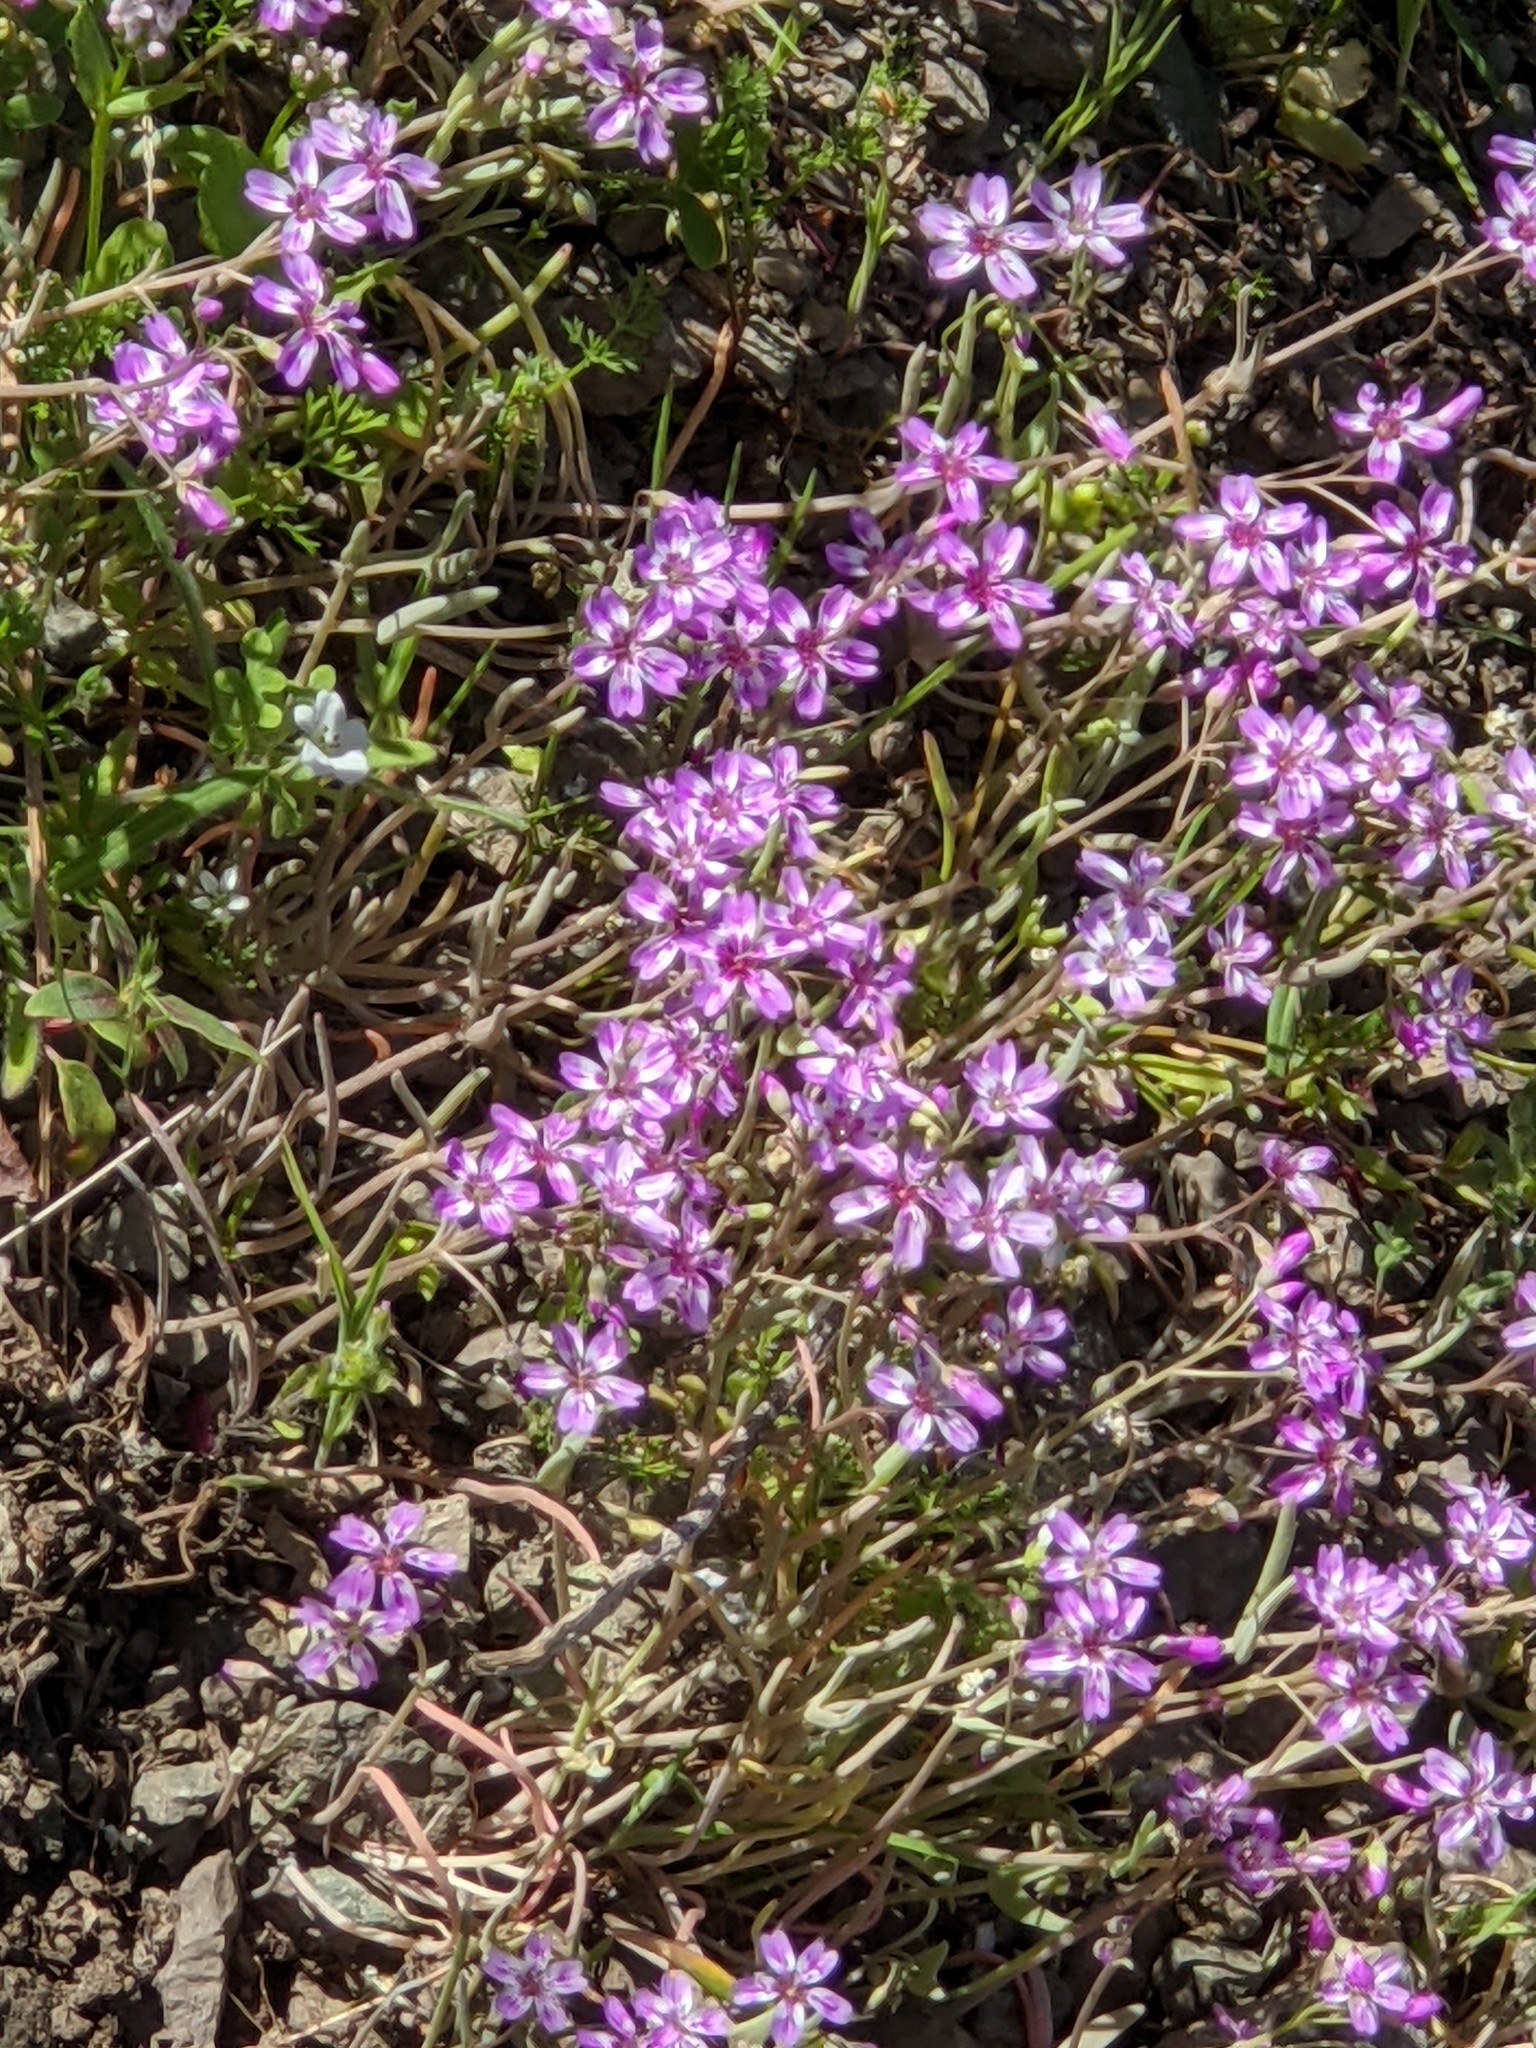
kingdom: Plantae
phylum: Tracheophyta
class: Magnoliopsida
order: Caryophyllales
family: Montiaceae
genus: Claytonia
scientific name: Claytonia gypsophiloides
